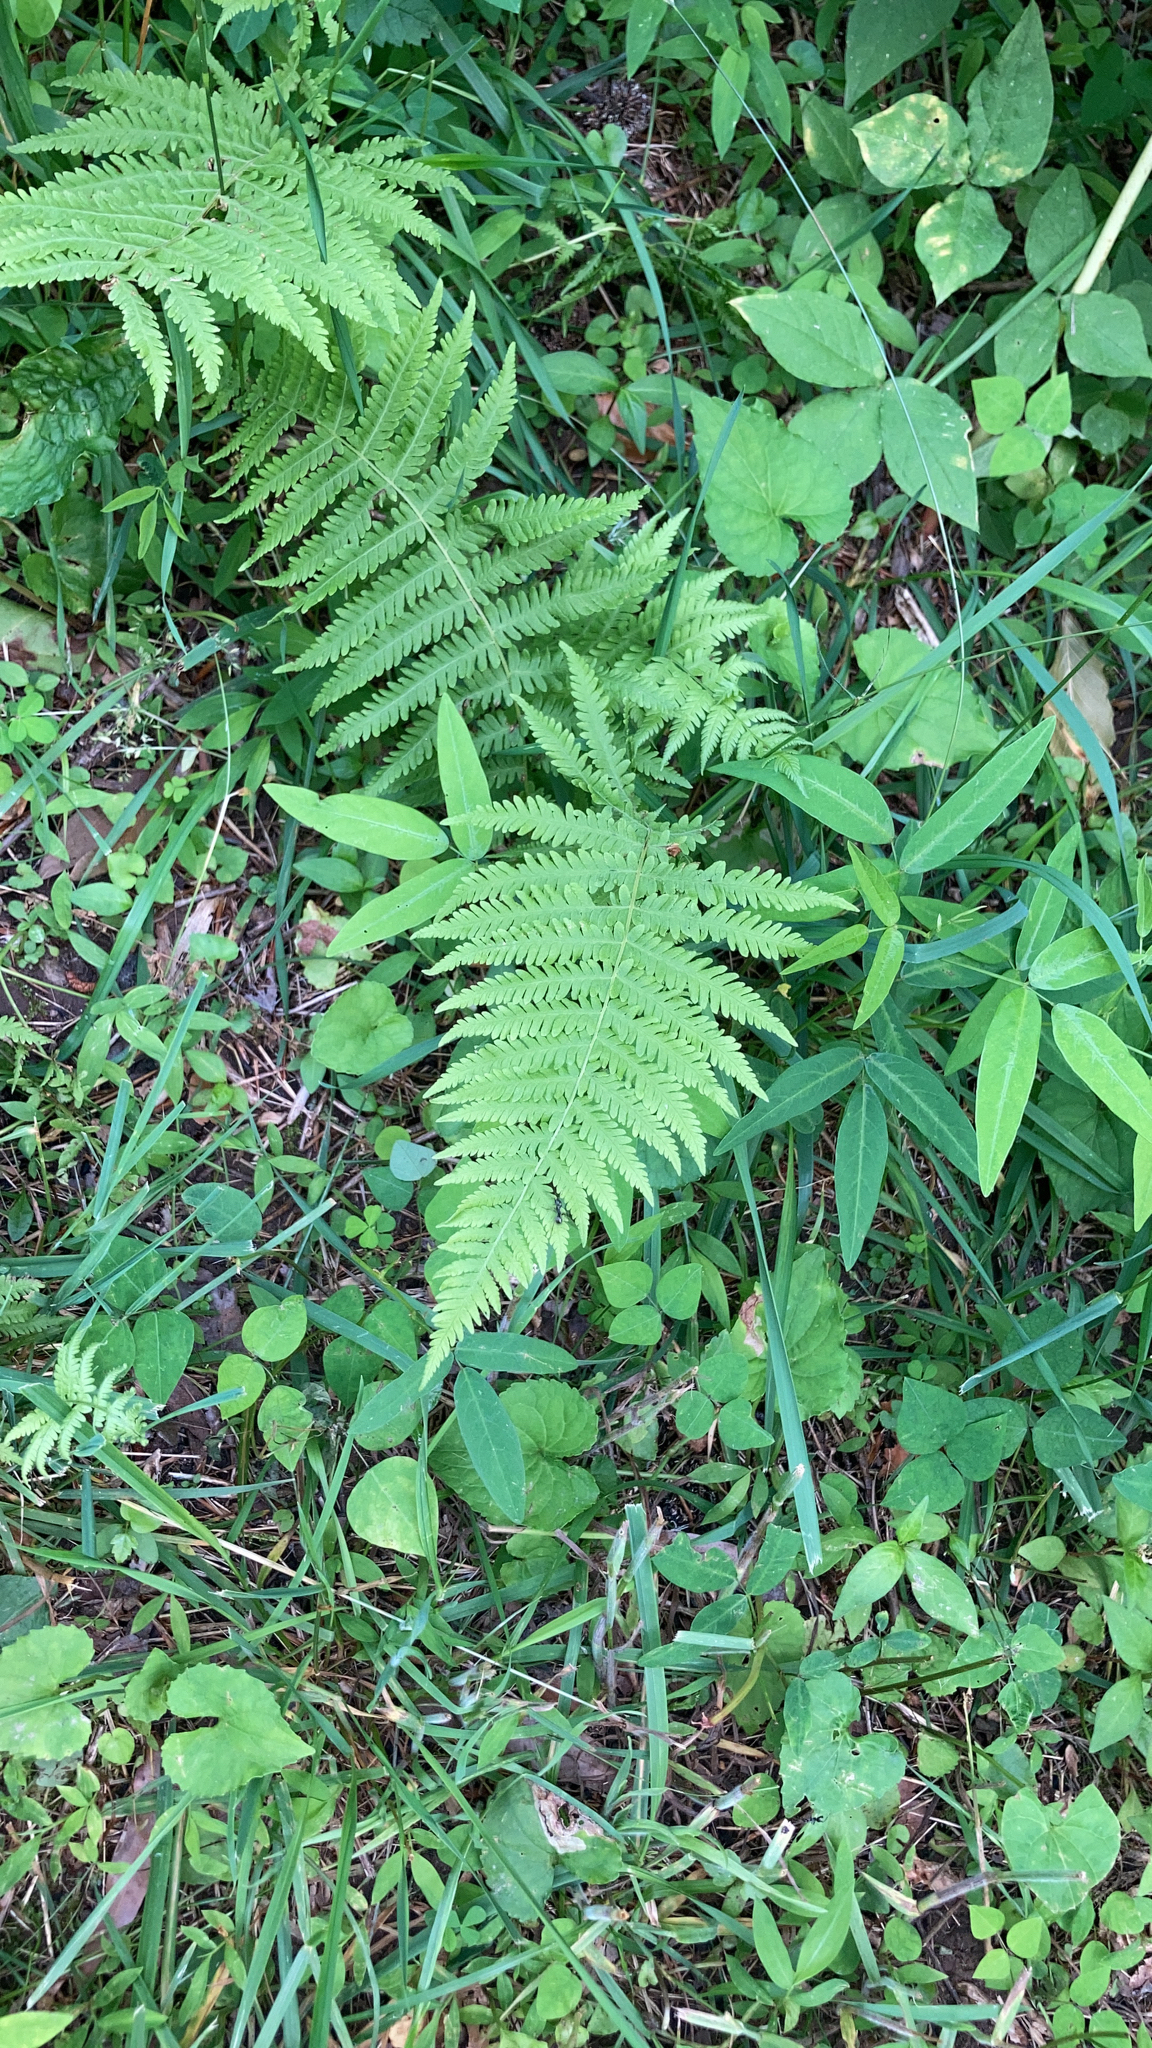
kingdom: Plantae
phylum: Tracheophyta
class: Polypodiopsida
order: Polypodiales
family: Thelypteridaceae
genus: Amauropelta
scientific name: Amauropelta noveboracensis
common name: New york fern
